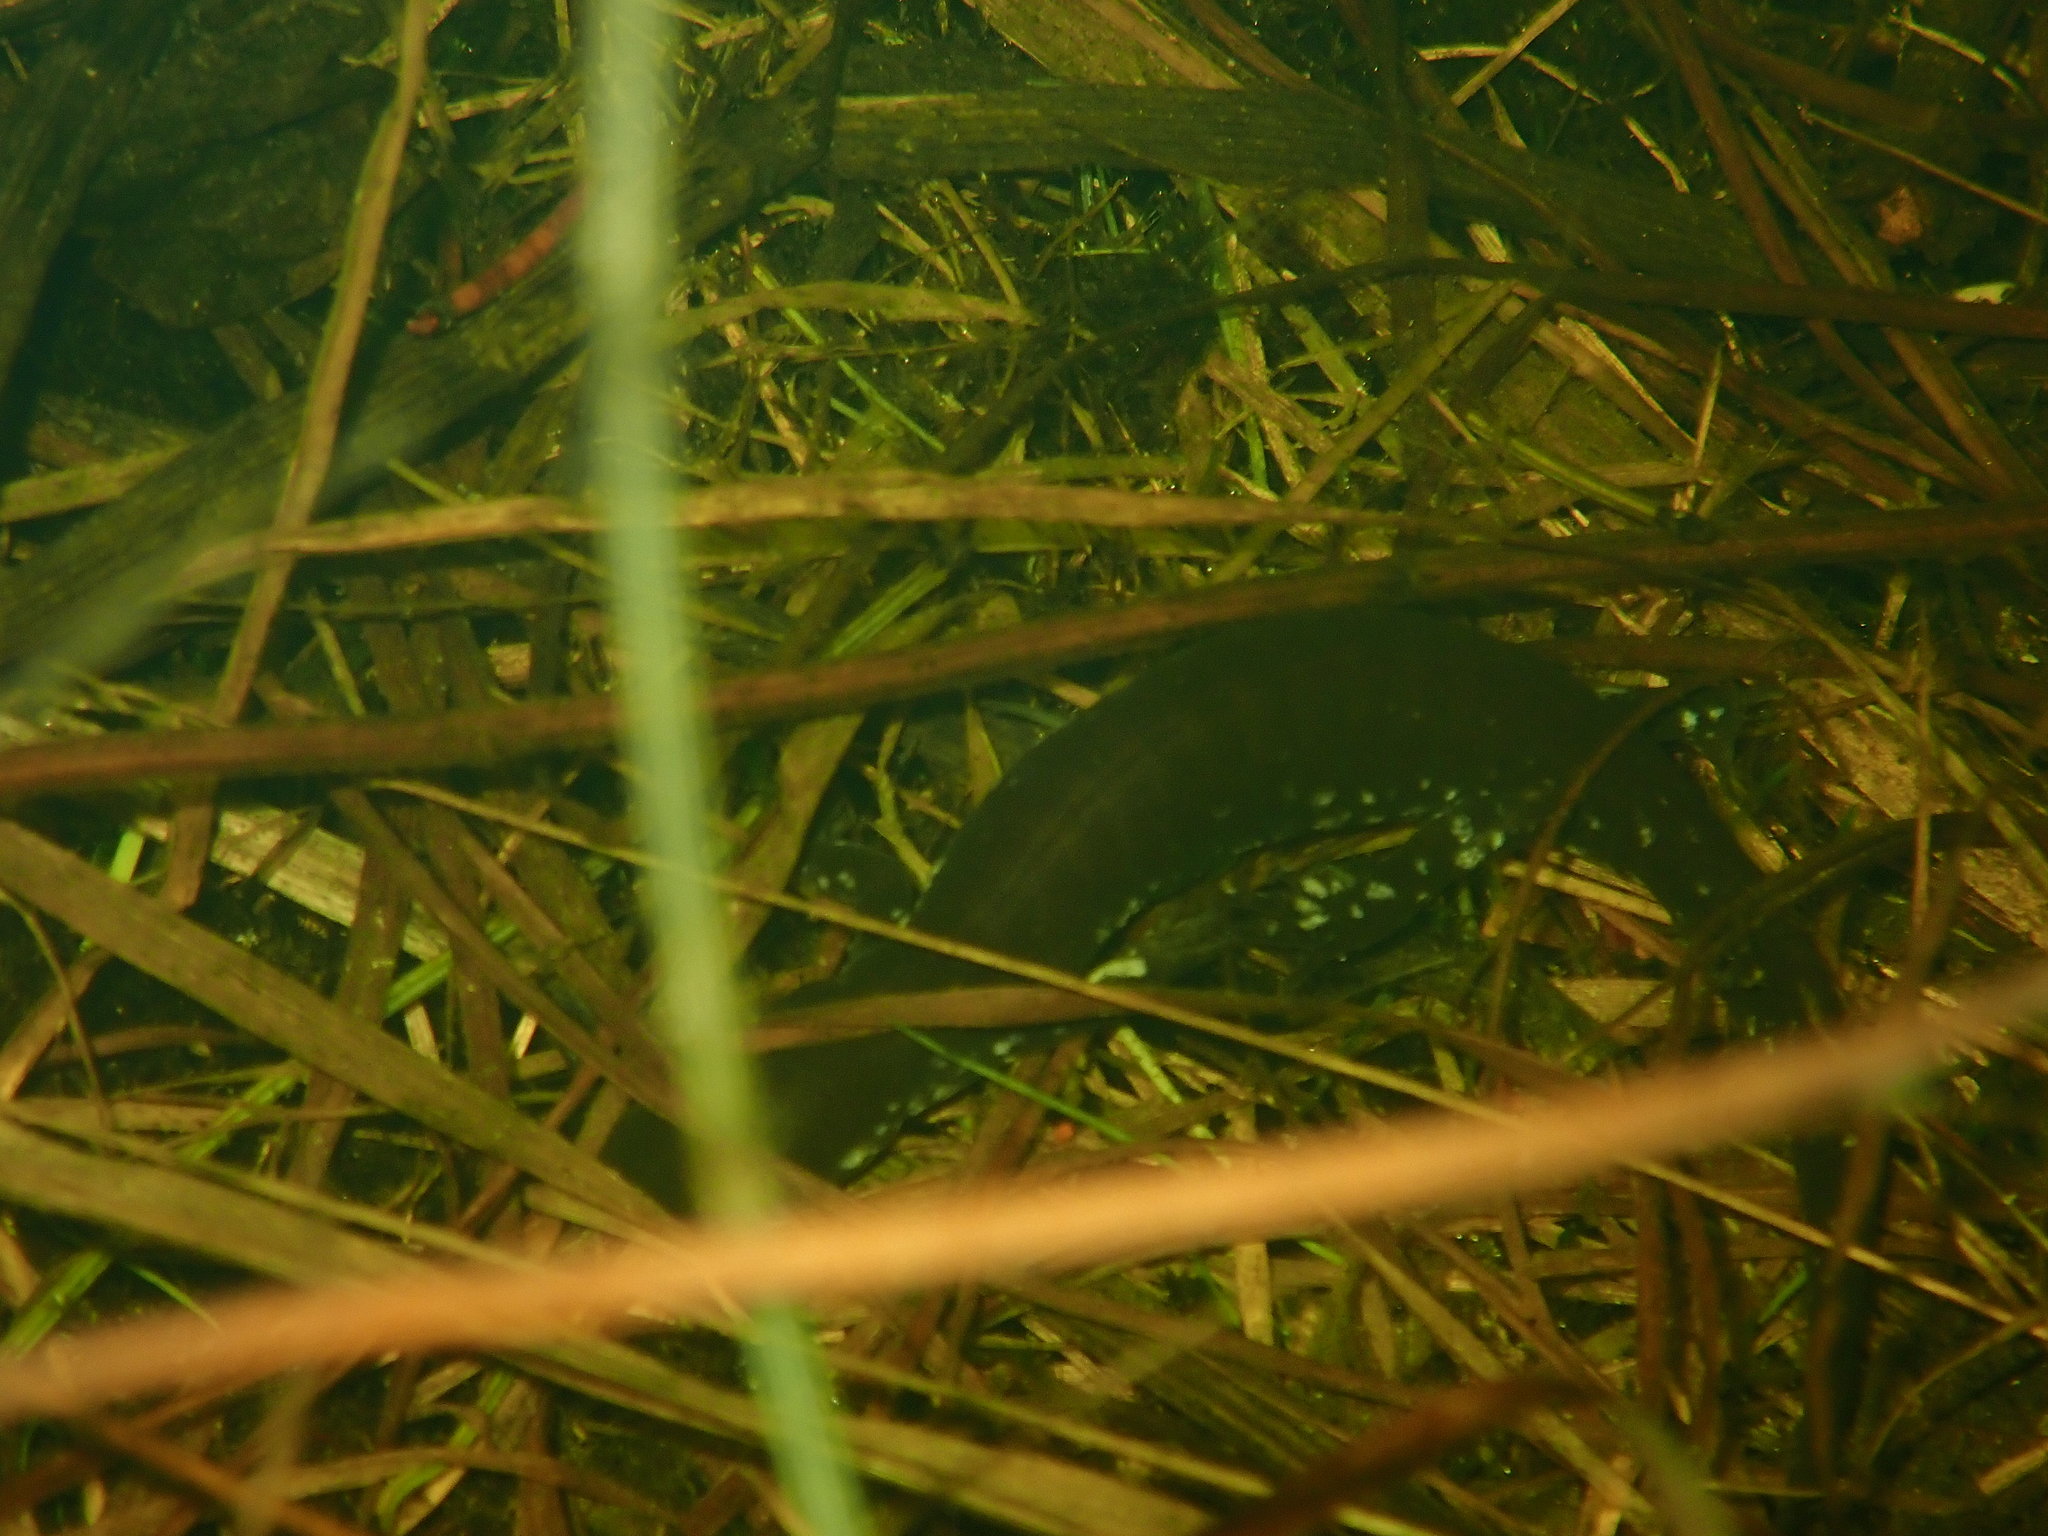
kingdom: Animalia
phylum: Chordata
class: Amphibia
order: Caudata
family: Ambystomatidae
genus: Ambystoma
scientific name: Ambystoma laterale
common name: Blue-spotted salamander
